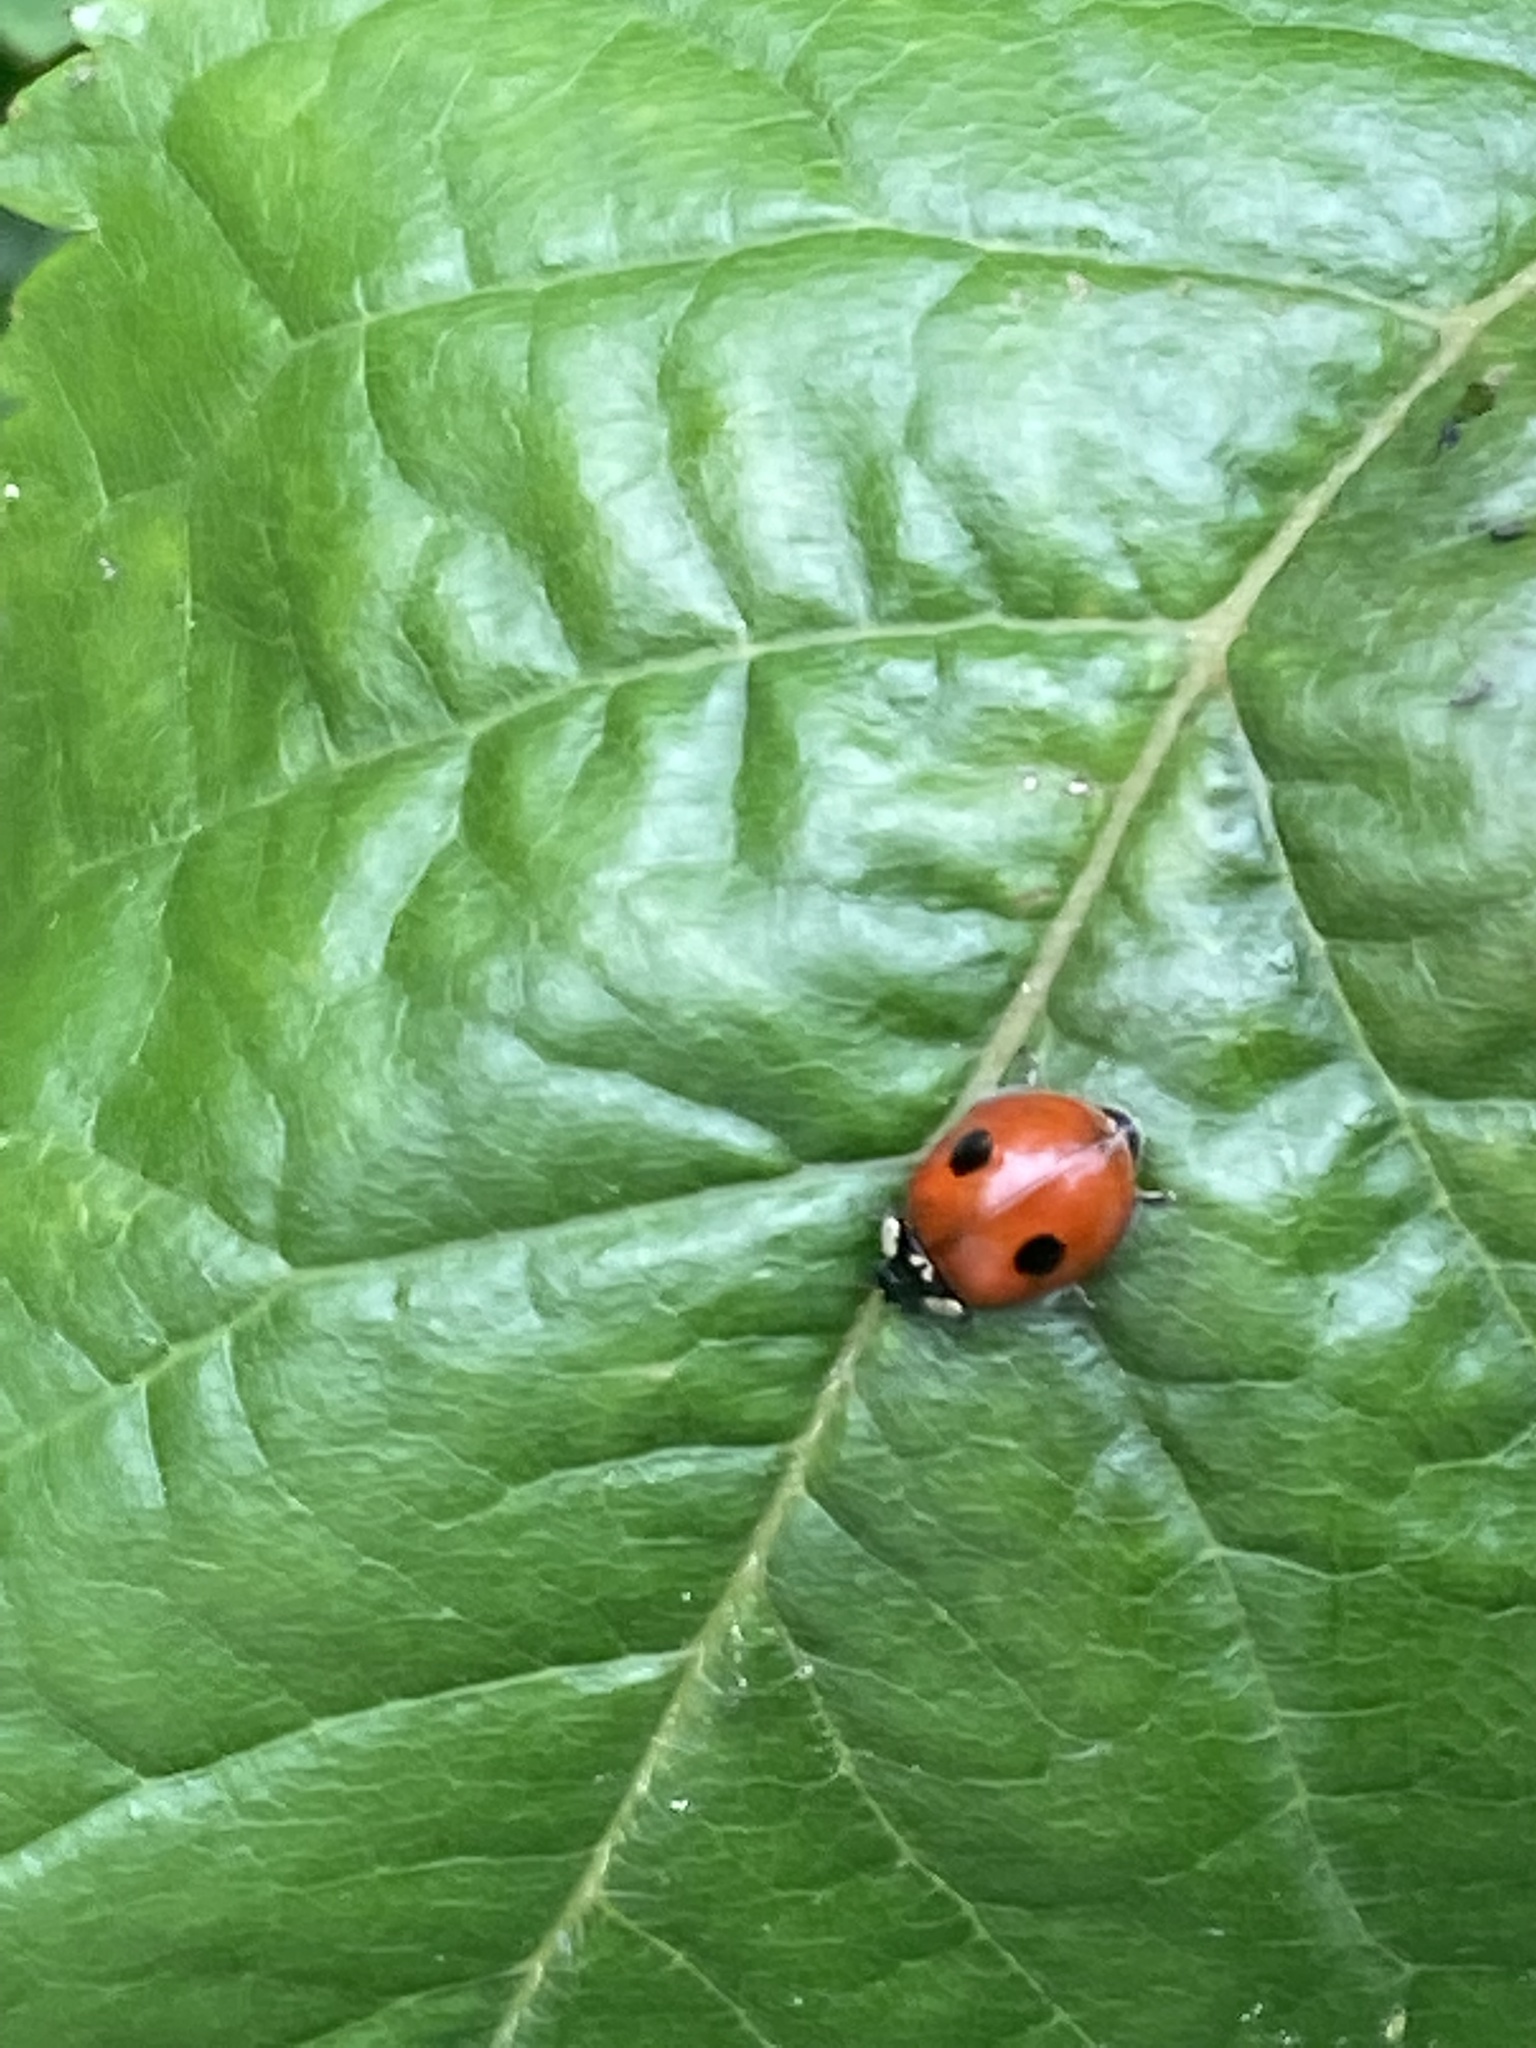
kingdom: Animalia
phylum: Arthropoda
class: Insecta
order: Coleoptera
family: Coccinellidae
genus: Adalia
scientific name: Adalia bipunctata
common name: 2-spot ladybird
